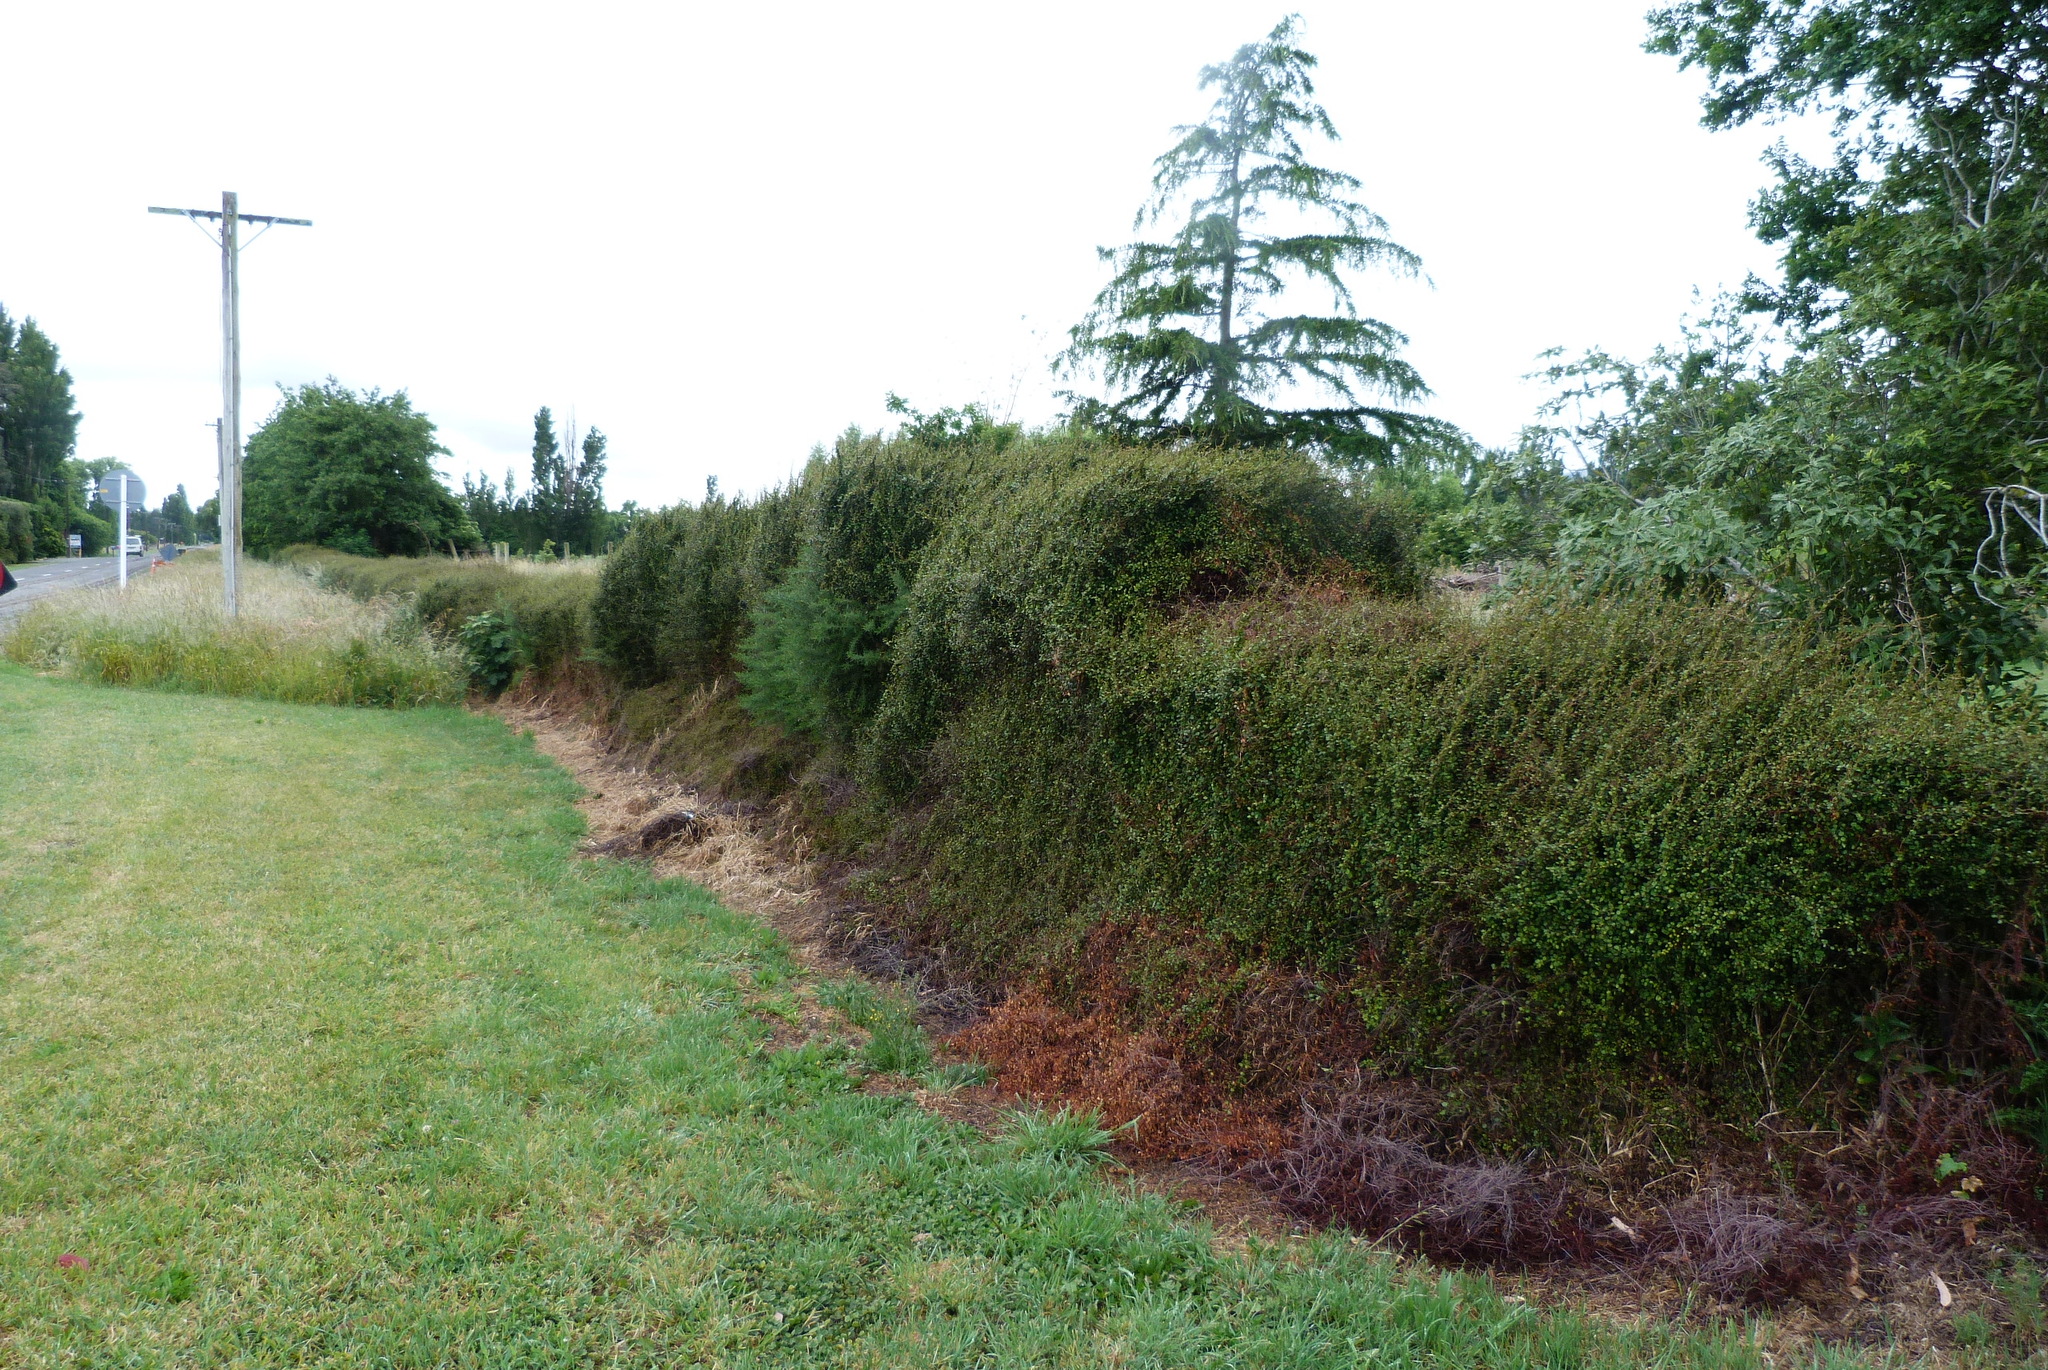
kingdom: Plantae
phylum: Tracheophyta
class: Magnoliopsida
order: Caryophyllales
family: Polygonaceae
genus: Muehlenbeckia
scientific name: Muehlenbeckia complexa
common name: Wireplant
